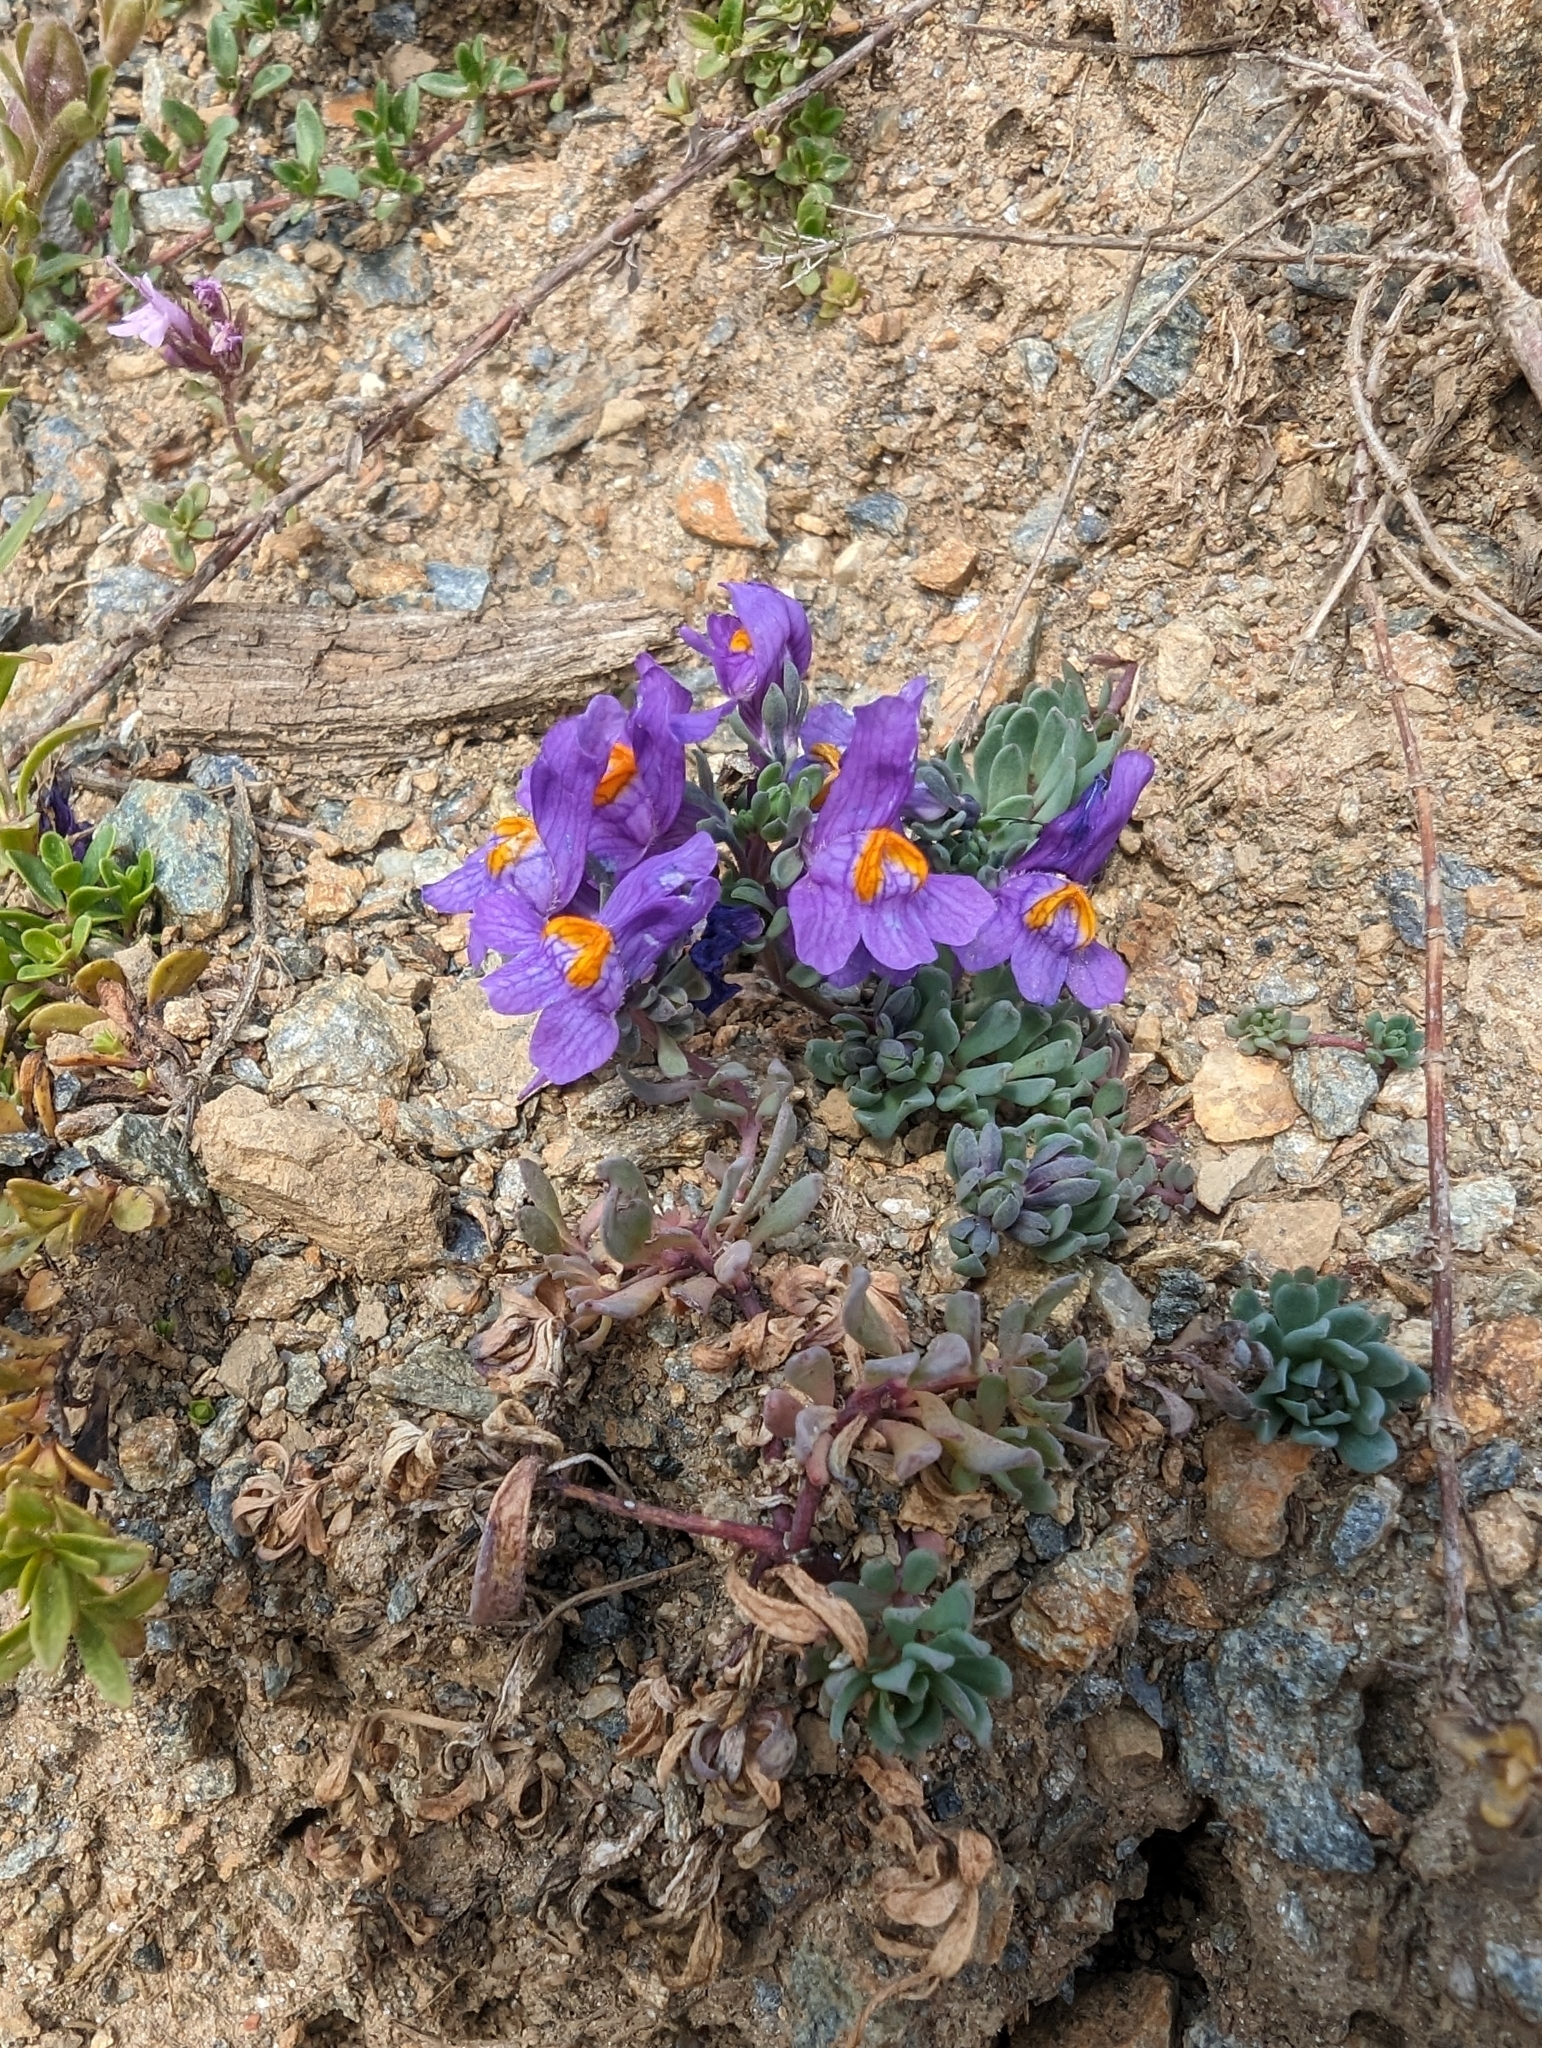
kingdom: Plantae
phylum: Tracheophyta
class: Magnoliopsida
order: Lamiales
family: Plantaginaceae
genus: Linaria
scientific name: Linaria alpina
